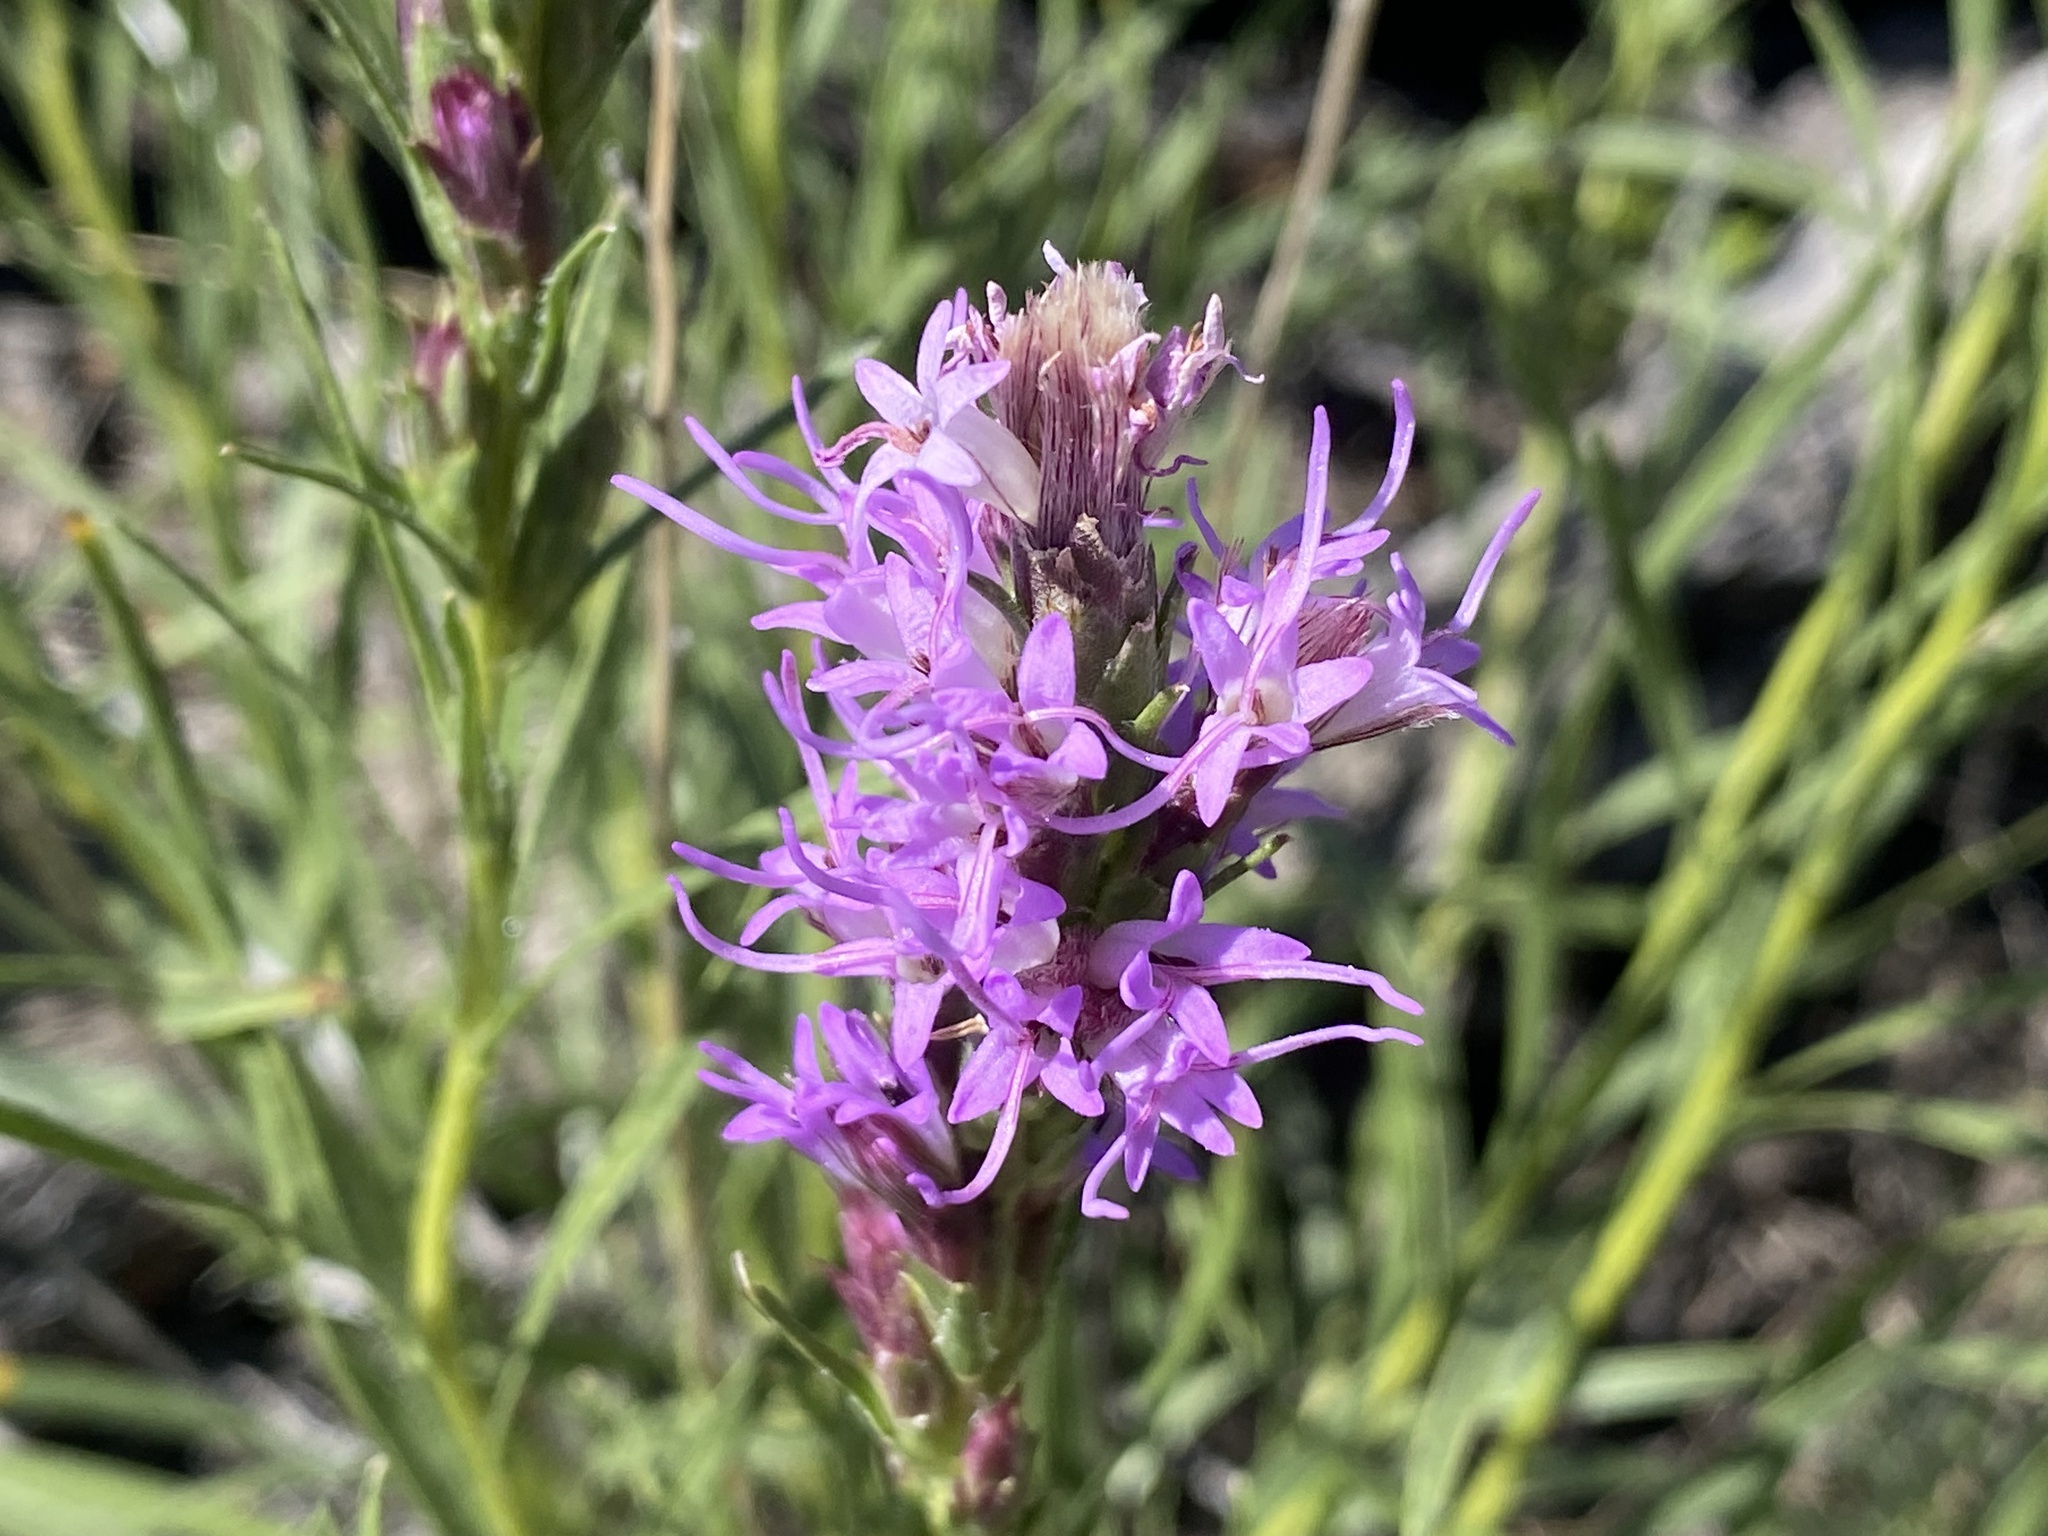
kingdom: Plantae
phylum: Tracheophyta
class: Magnoliopsida
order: Asterales
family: Asteraceae
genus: Liatris
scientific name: Liatris punctata
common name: Dotted gayfeather
